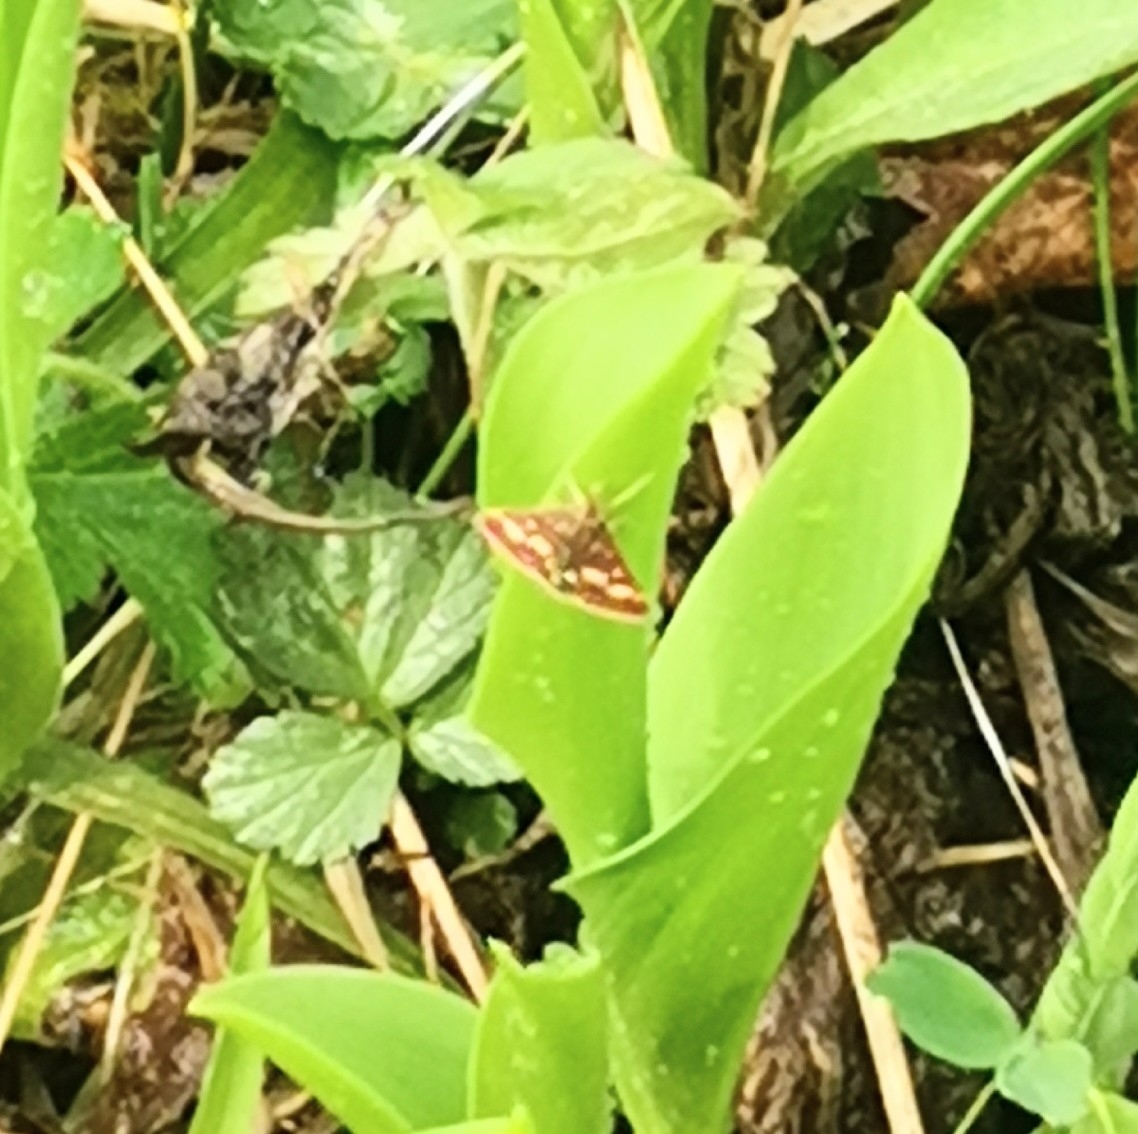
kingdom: Animalia
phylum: Arthropoda
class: Insecta
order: Lepidoptera
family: Crambidae
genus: Pyrausta
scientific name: Pyrausta purpuralis
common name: Common purple & gold
